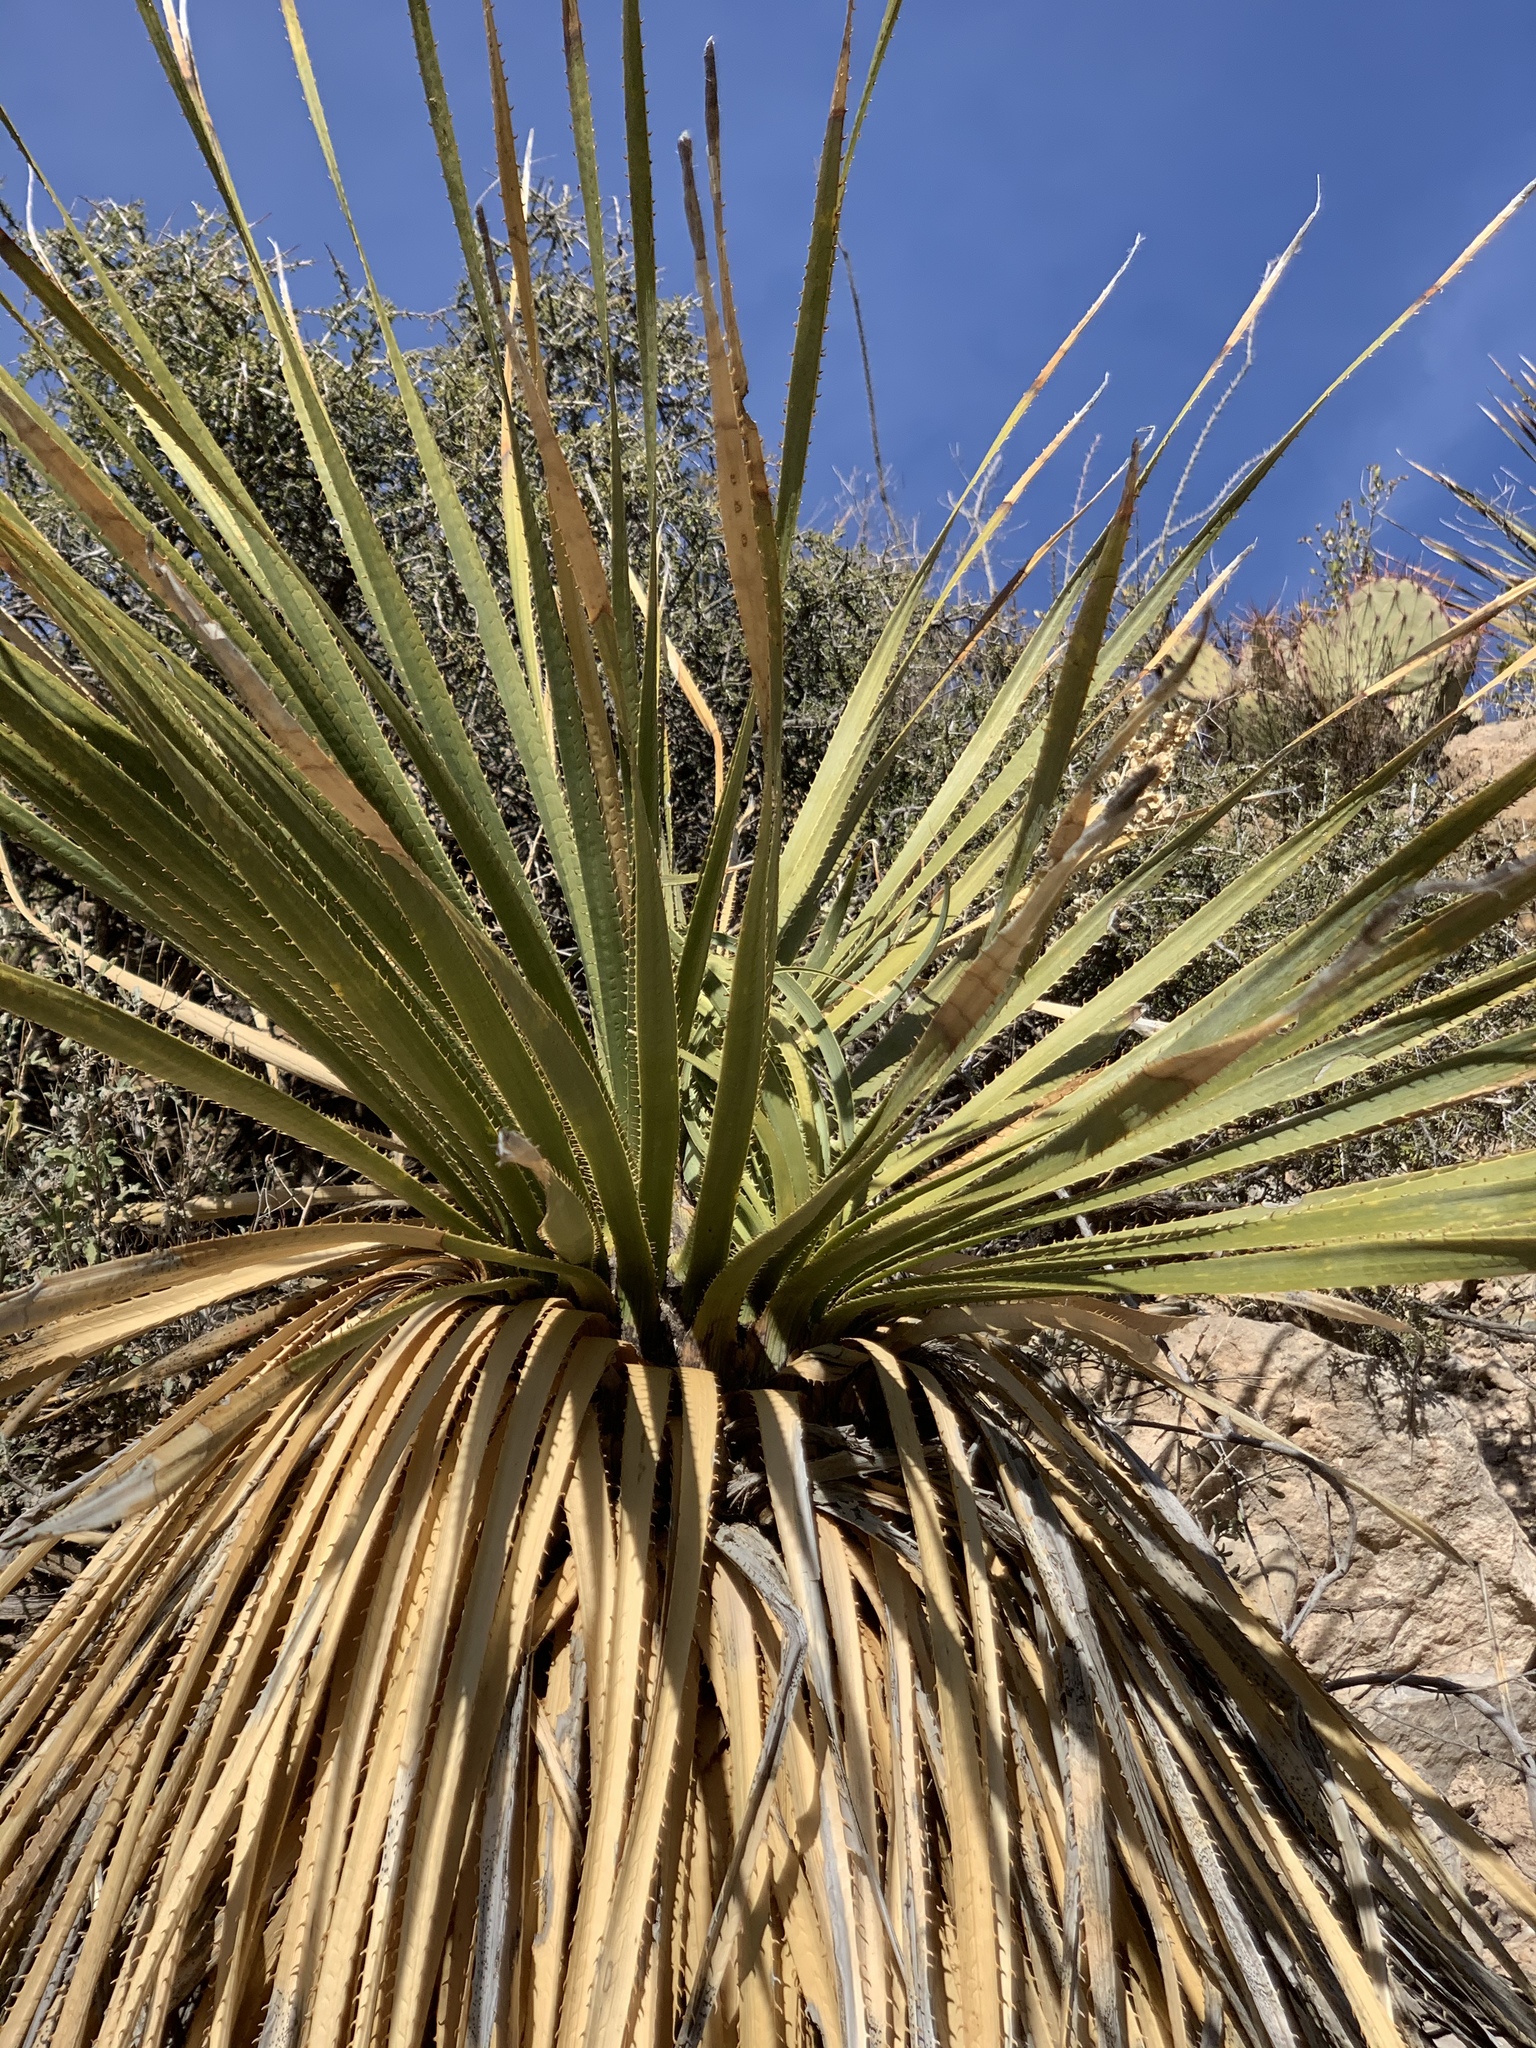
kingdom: Plantae
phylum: Tracheophyta
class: Liliopsida
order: Asparagales
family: Asparagaceae
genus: Dasylirion
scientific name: Dasylirion wheeleri
